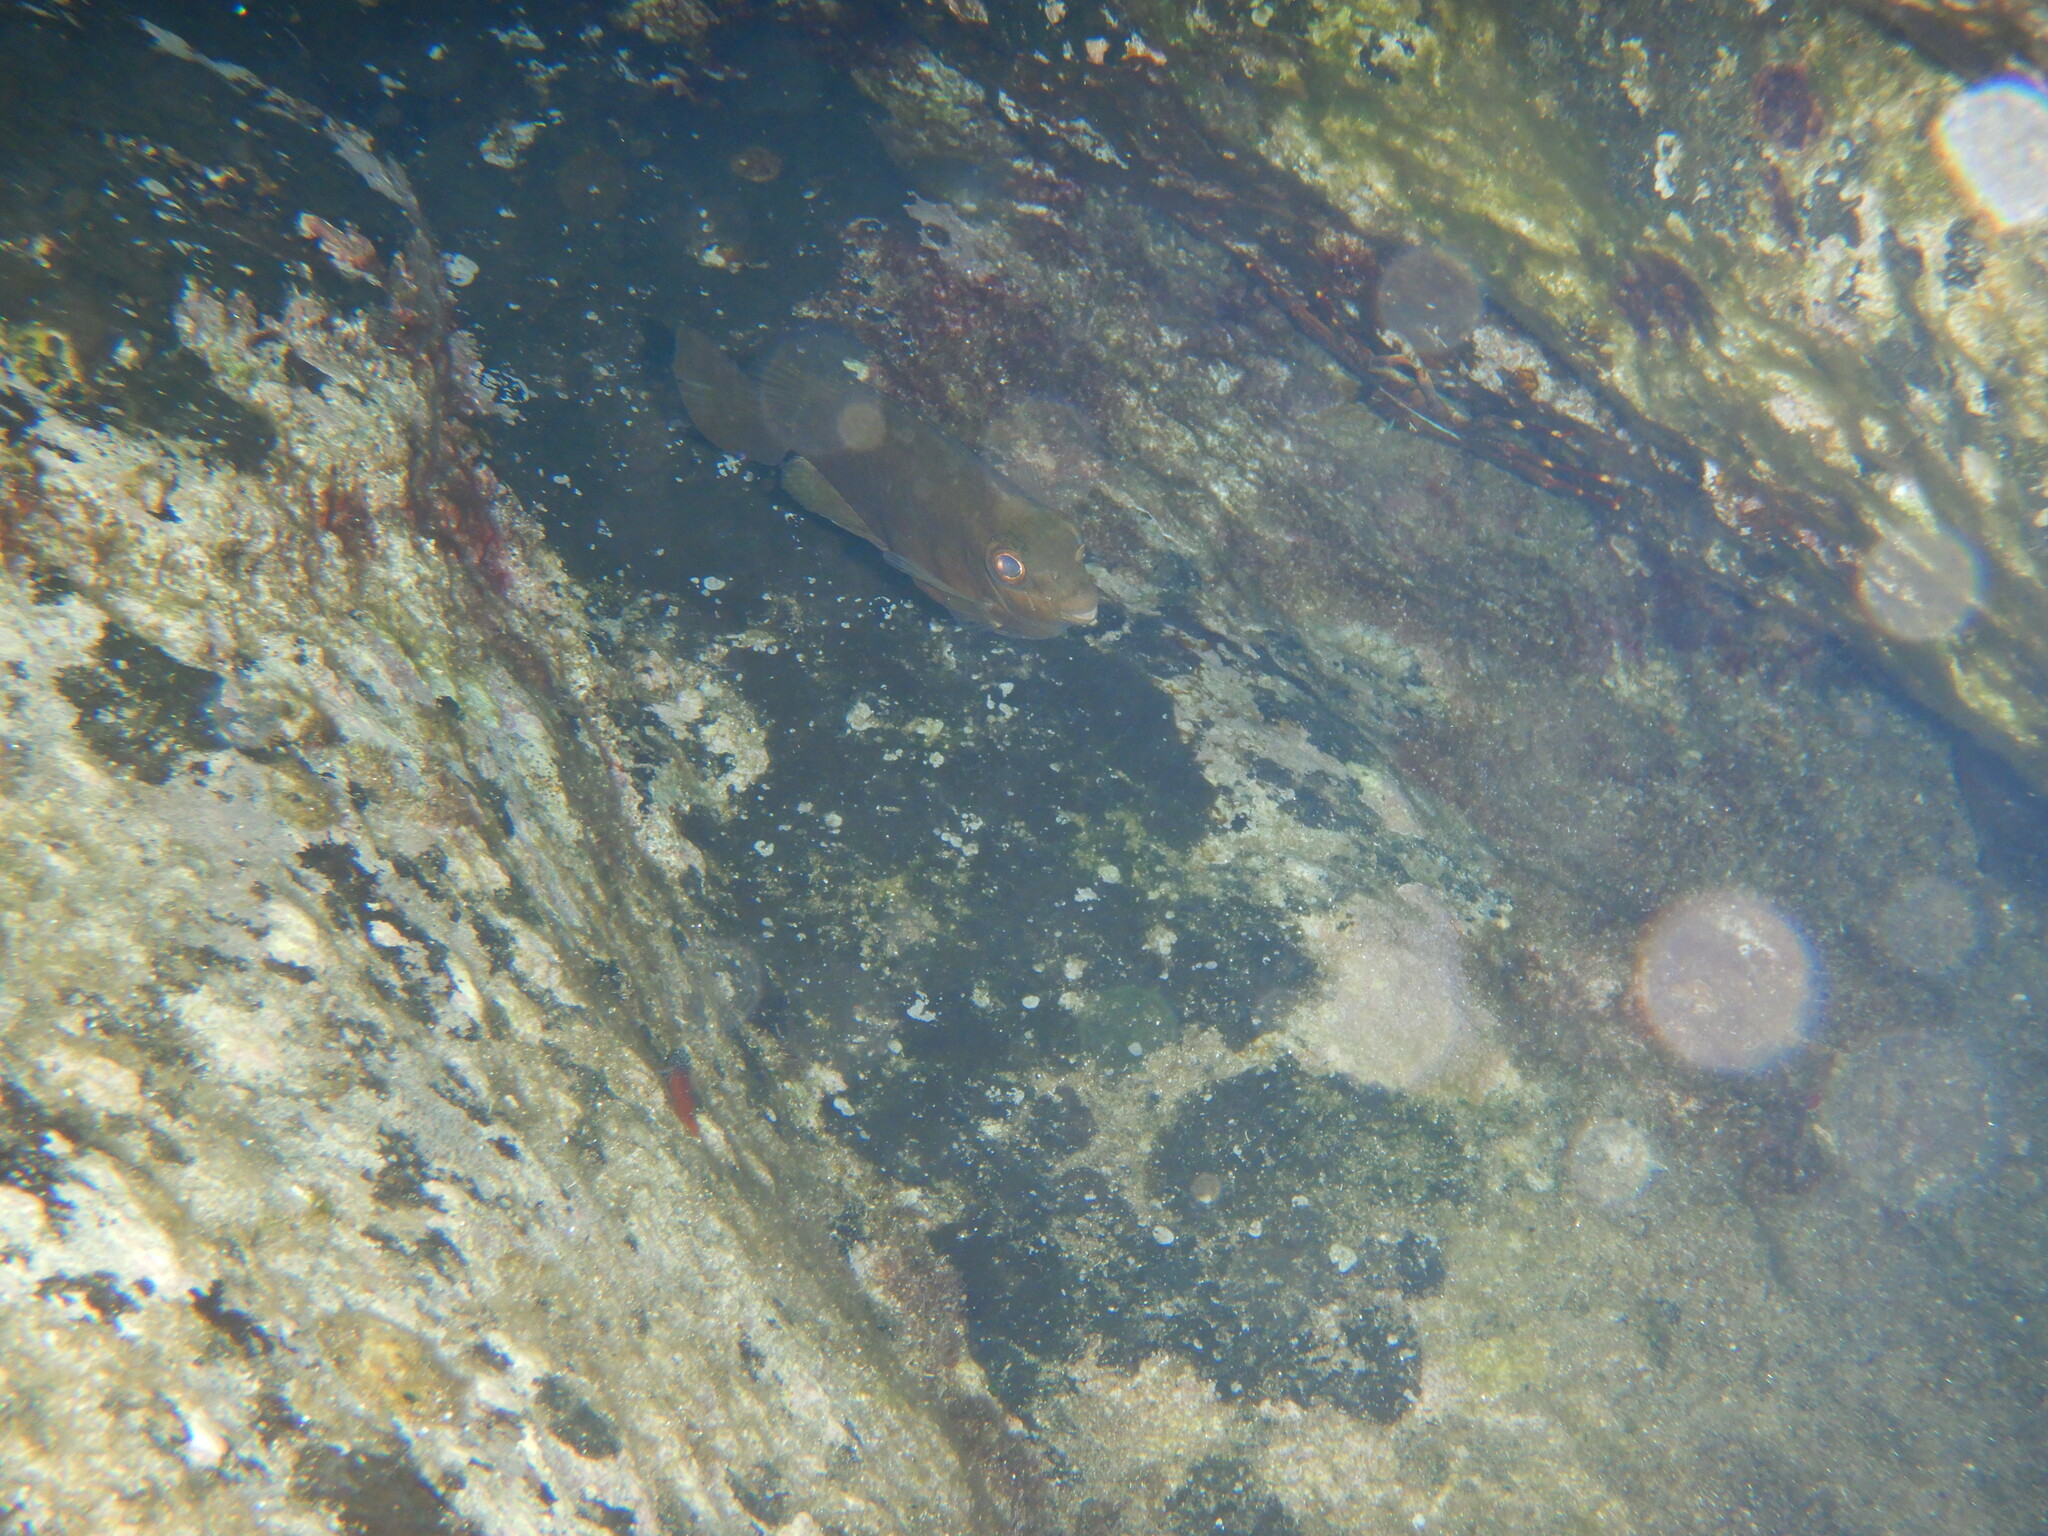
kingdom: Animalia
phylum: Chordata
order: Perciformes
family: Siganidae
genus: Siganus
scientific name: Siganus luridus
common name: Dusky spinefoot
